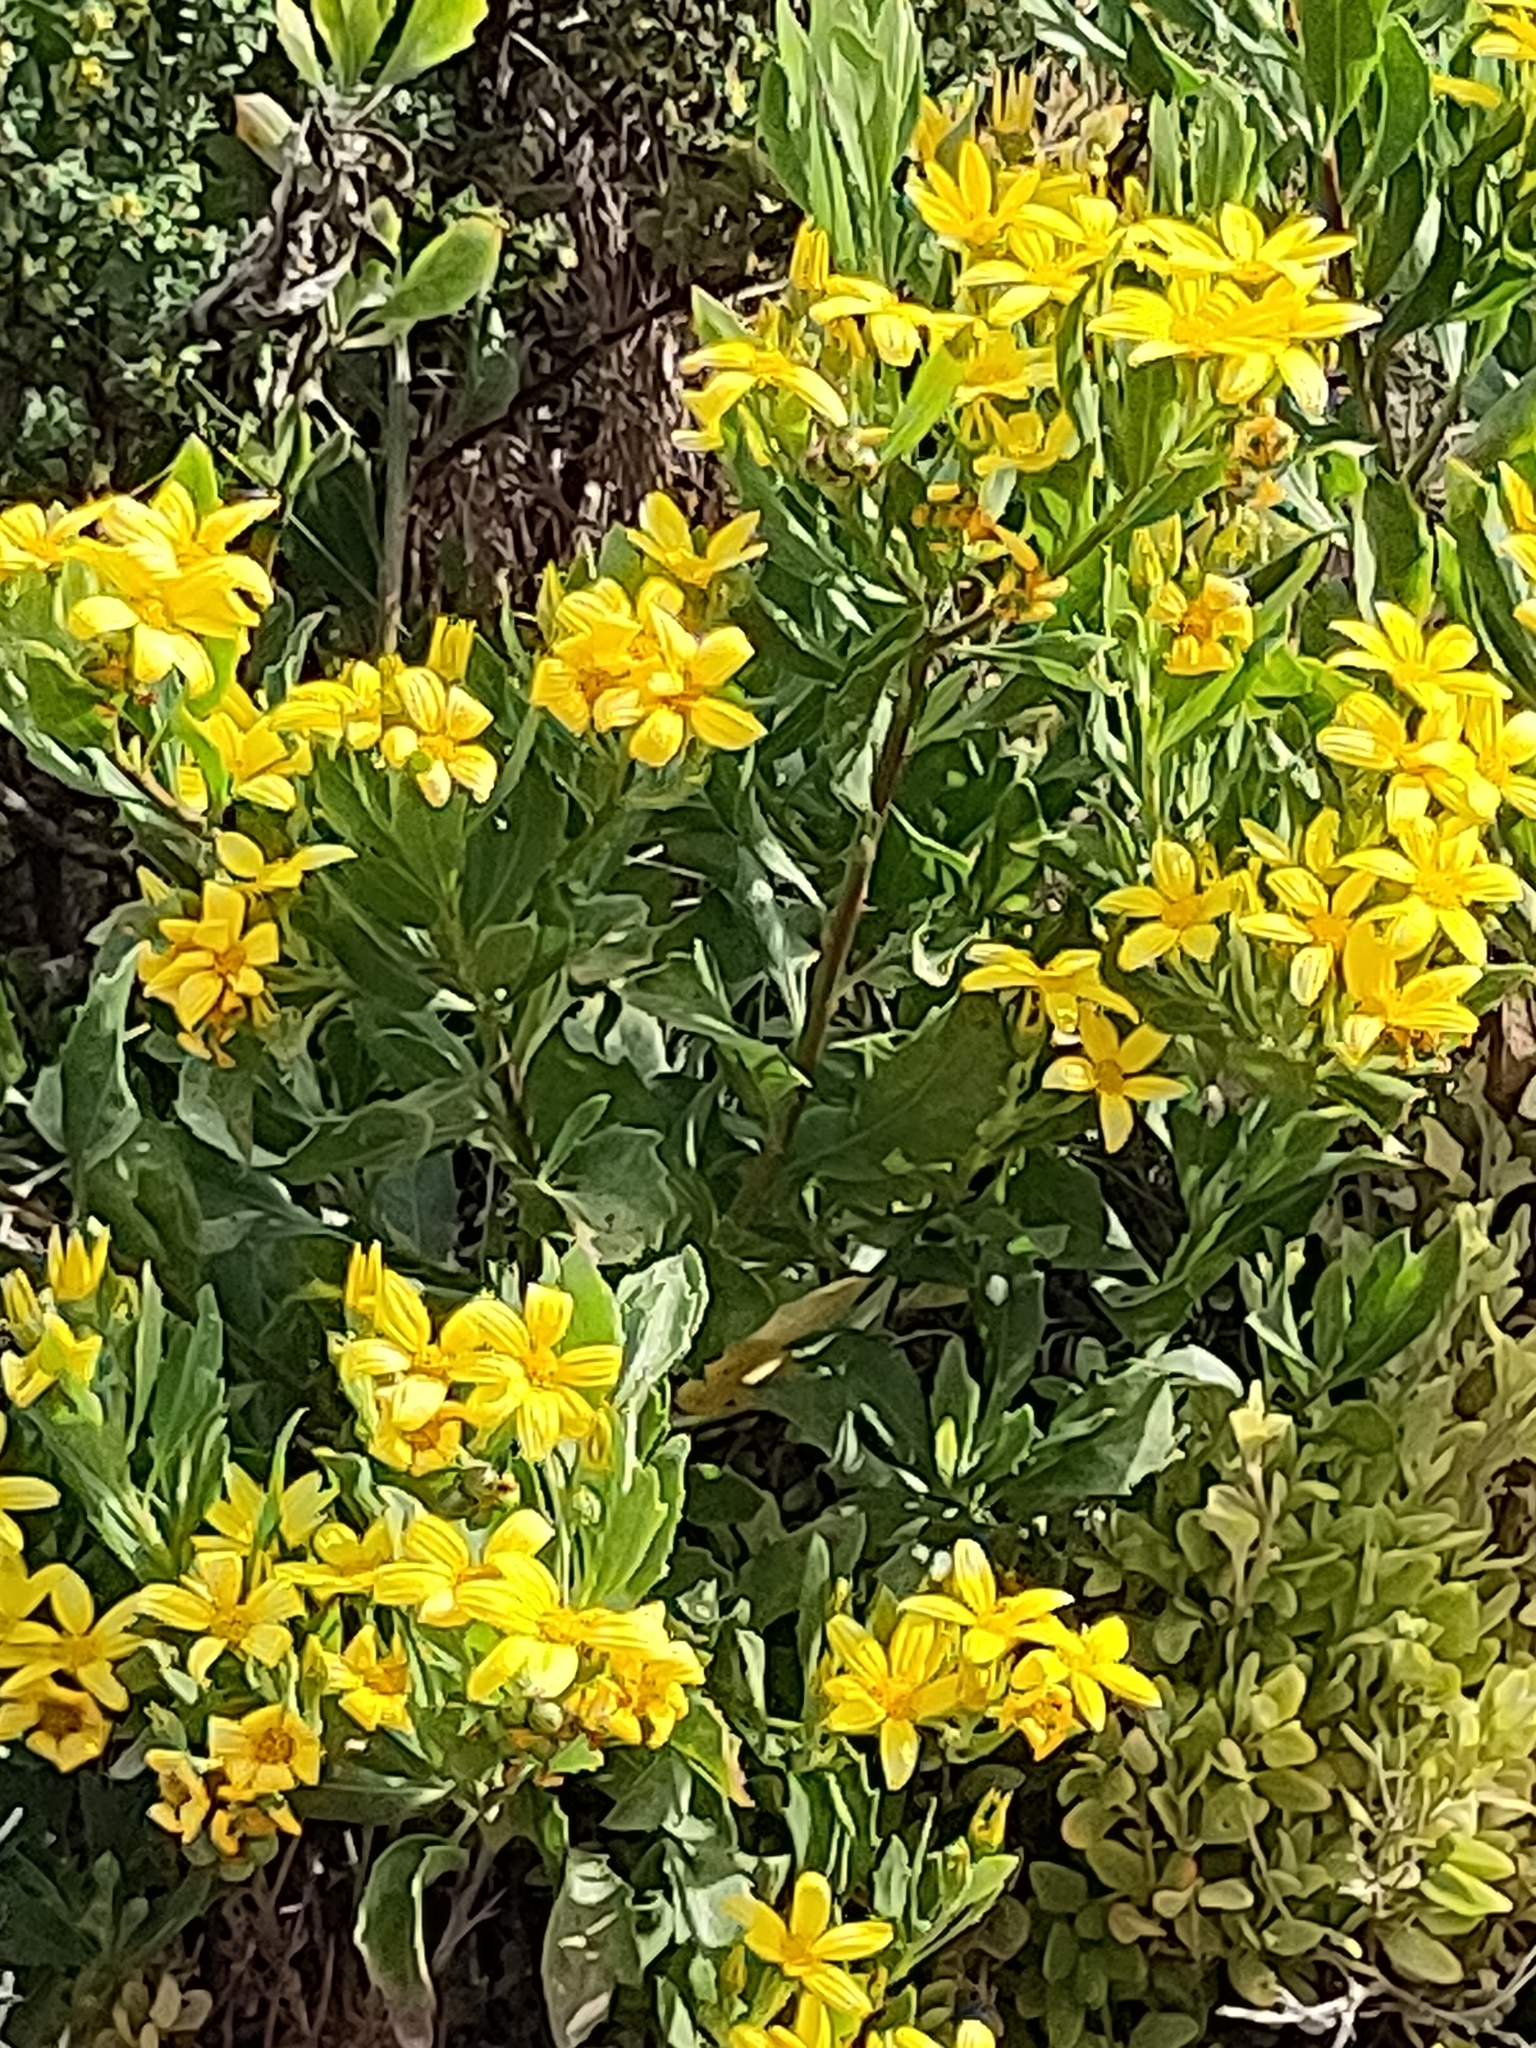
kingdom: Plantae
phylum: Tracheophyta
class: Magnoliopsida
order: Asterales
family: Asteraceae
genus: Osteospermum
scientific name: Osteospermum moniliferum
